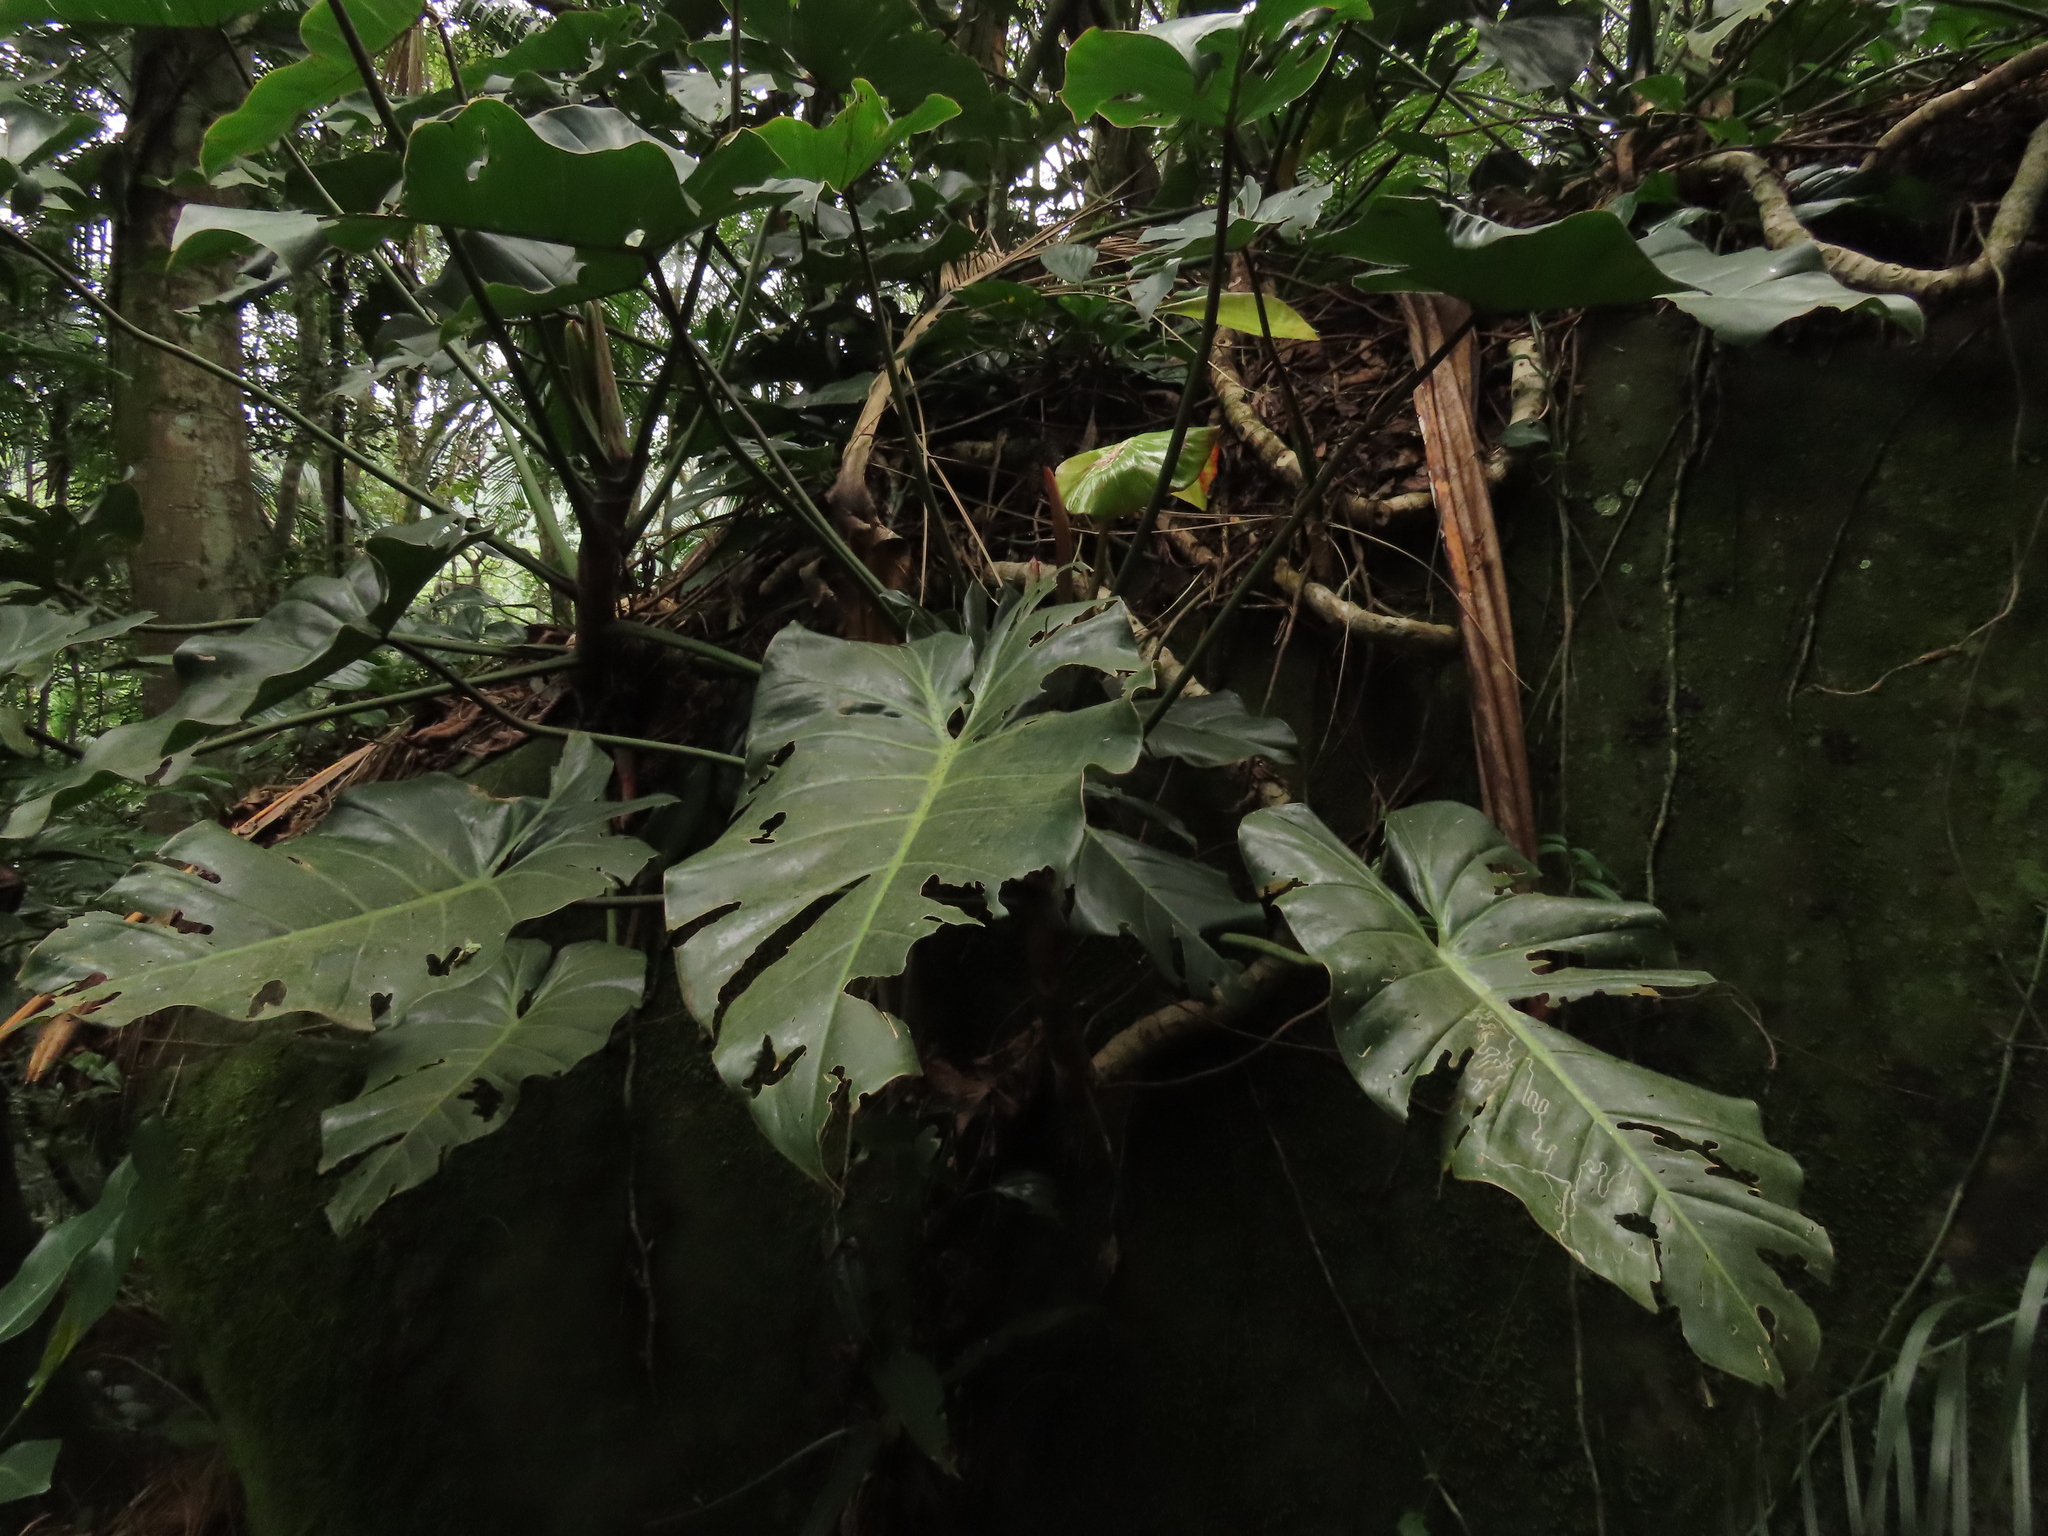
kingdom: Plantae
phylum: Tracheophyta
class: Liliopsida
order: Alismatales
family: Araceae
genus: Philodendron
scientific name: Philodendron cordatum
